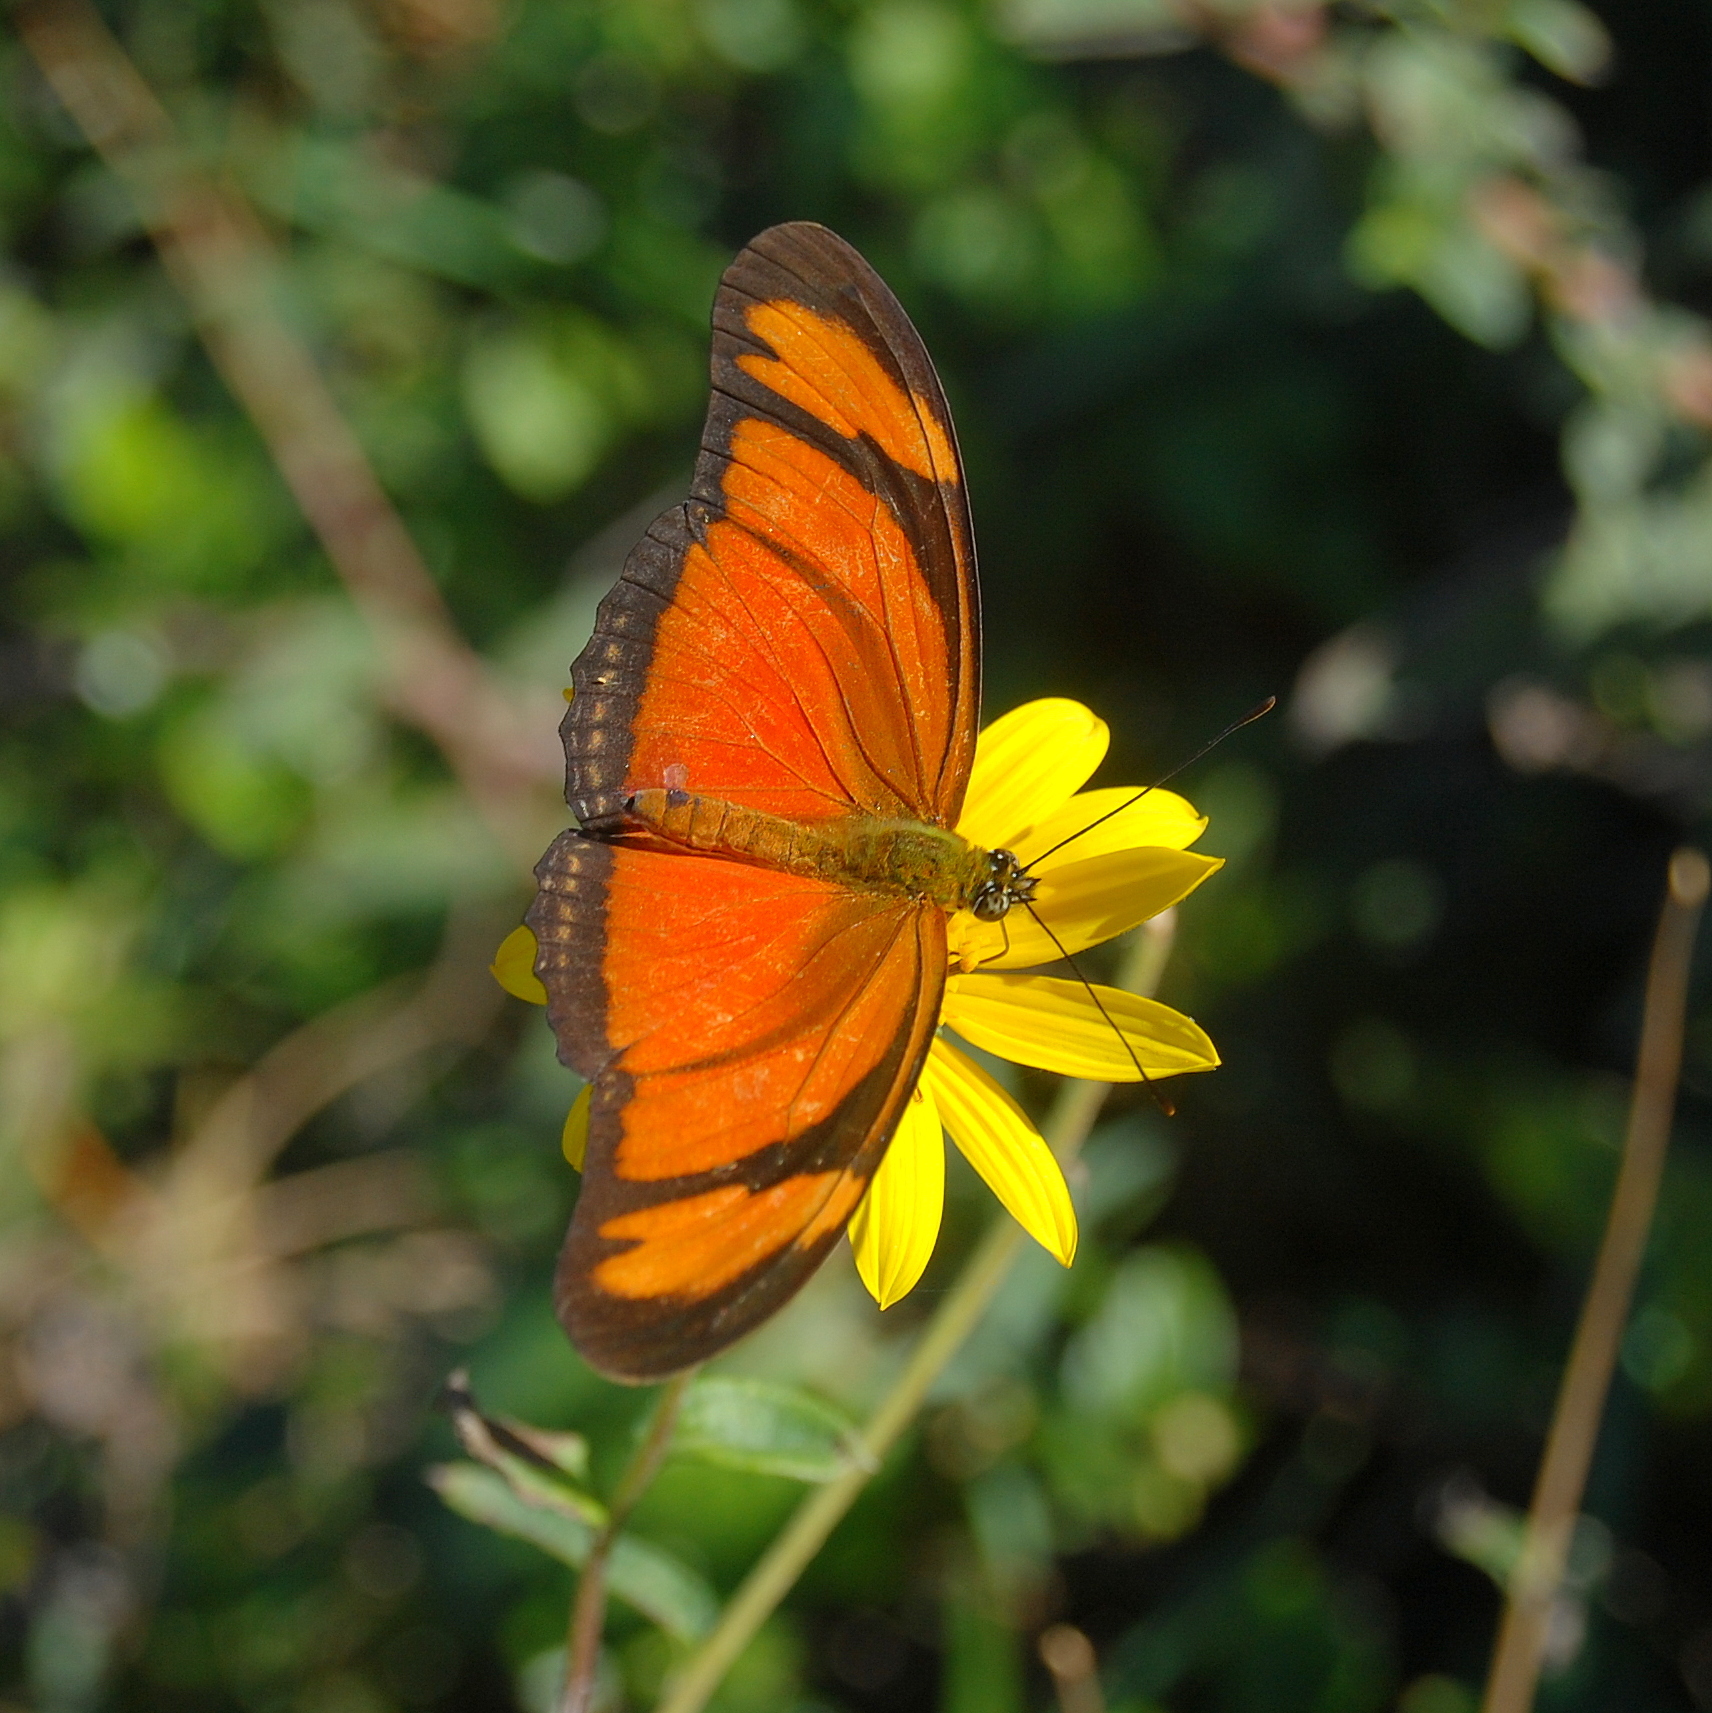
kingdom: Animalia
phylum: Arthropoda
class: Insecta
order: Lepidoptera
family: Nymphalidae
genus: Dryas
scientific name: Dryas iulia
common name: Flambeau
